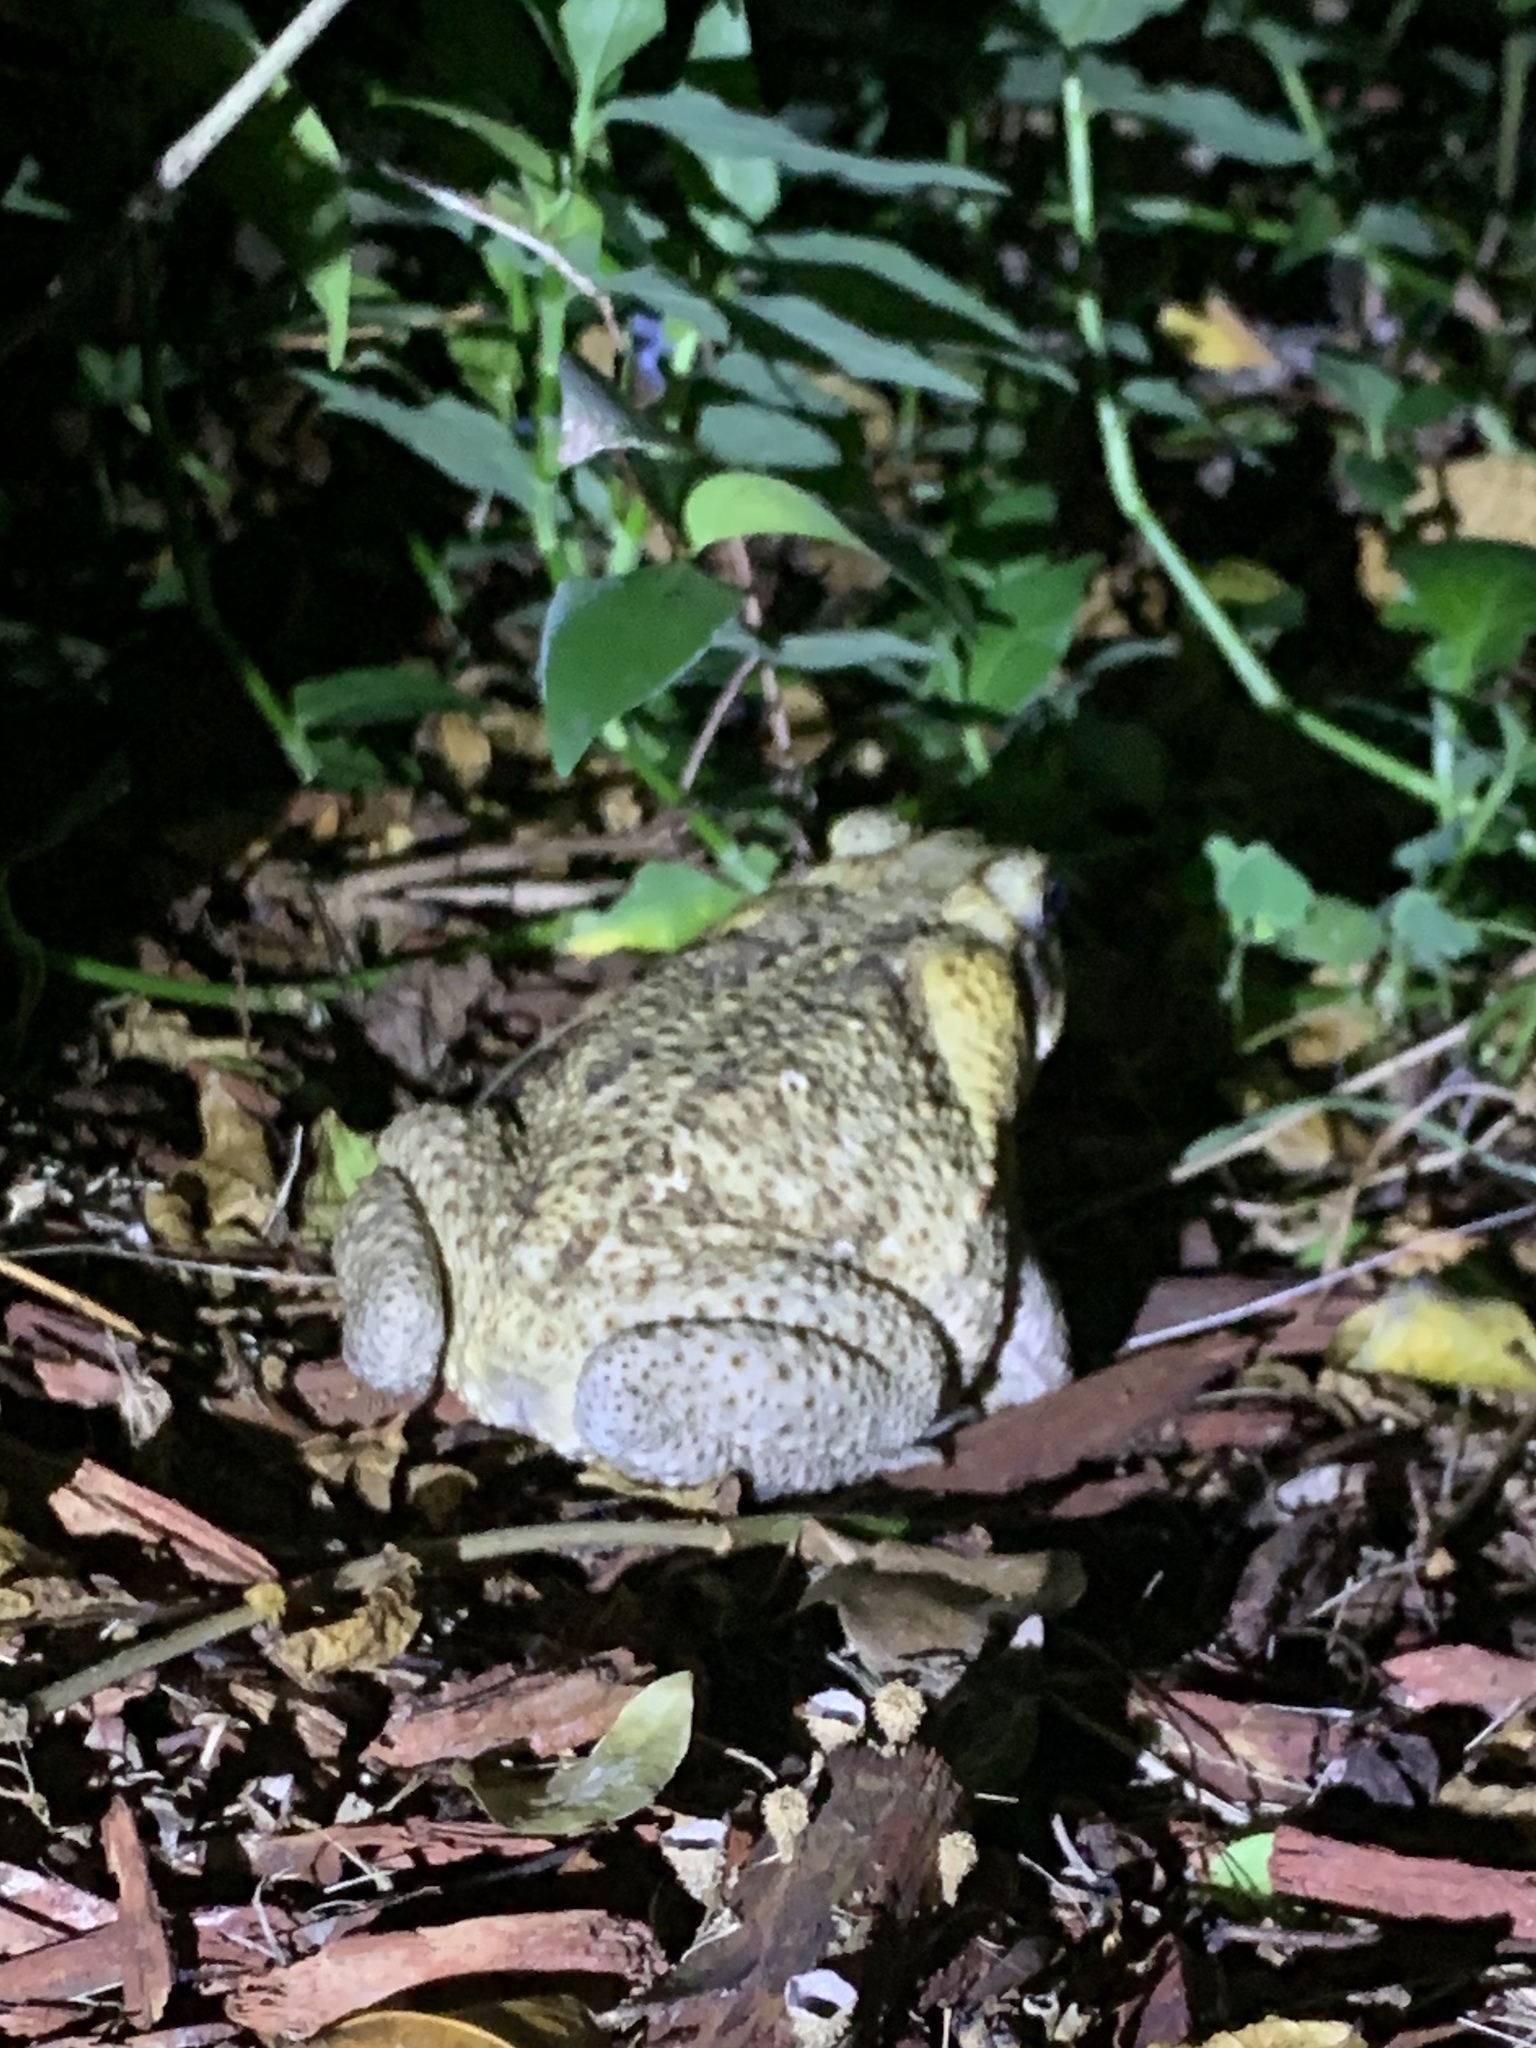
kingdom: Animalia
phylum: Chordata
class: Amphibia
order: Anura
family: Bufonidae
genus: Rhinella
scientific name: Rhinella marina
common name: Cane toad
